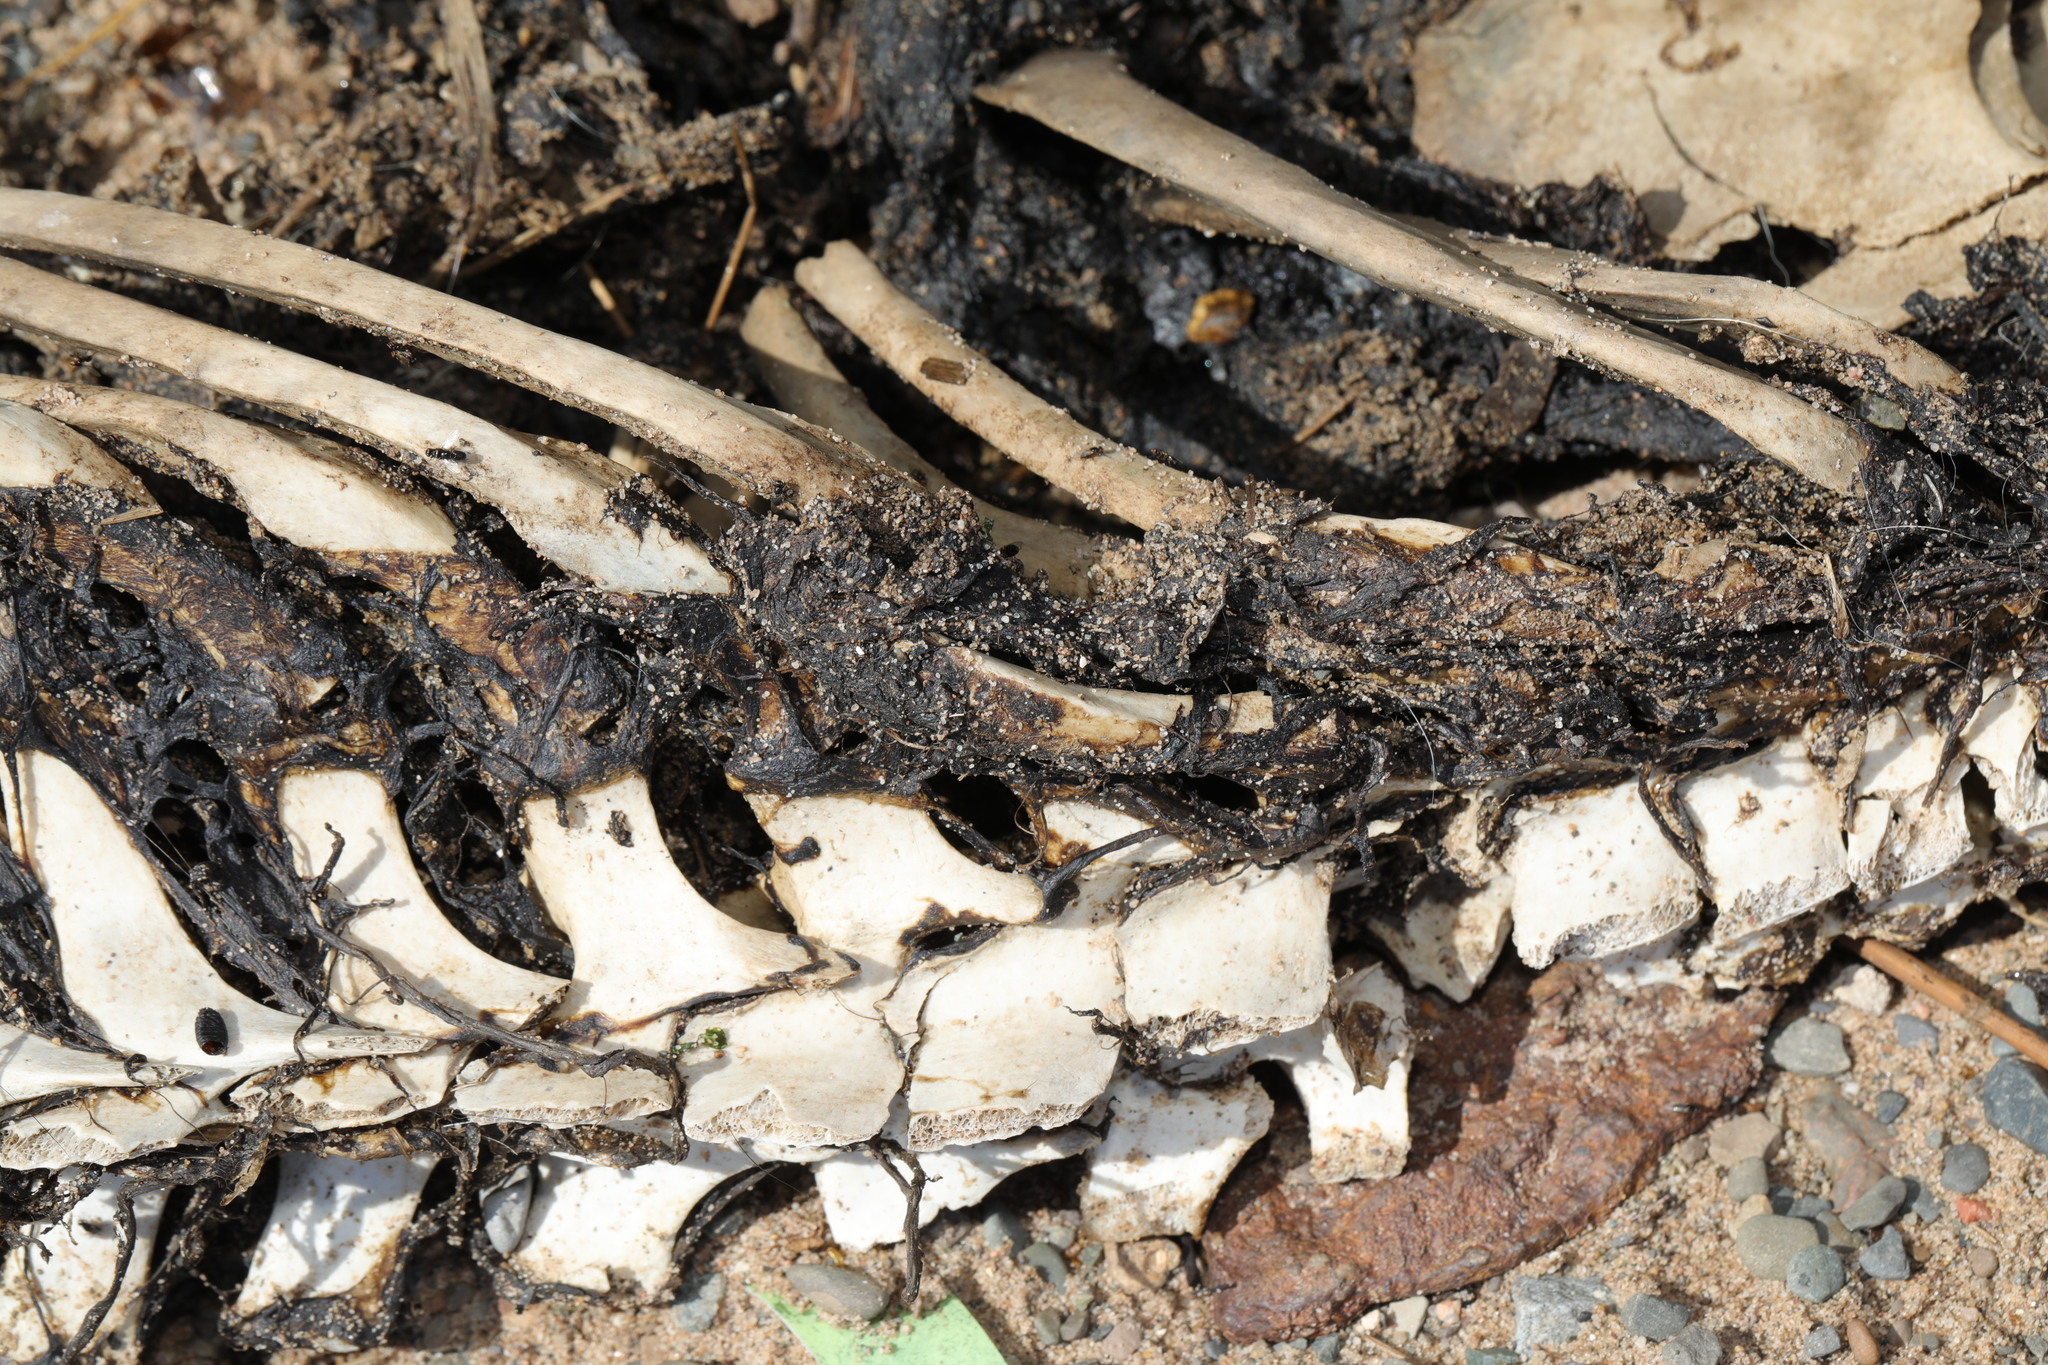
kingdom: Animalia
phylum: Chordata
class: Mammalia
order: Cetacea
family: Phocoenidae
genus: Phocoena
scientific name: Phocoena phocoena
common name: Harbor porpoise
